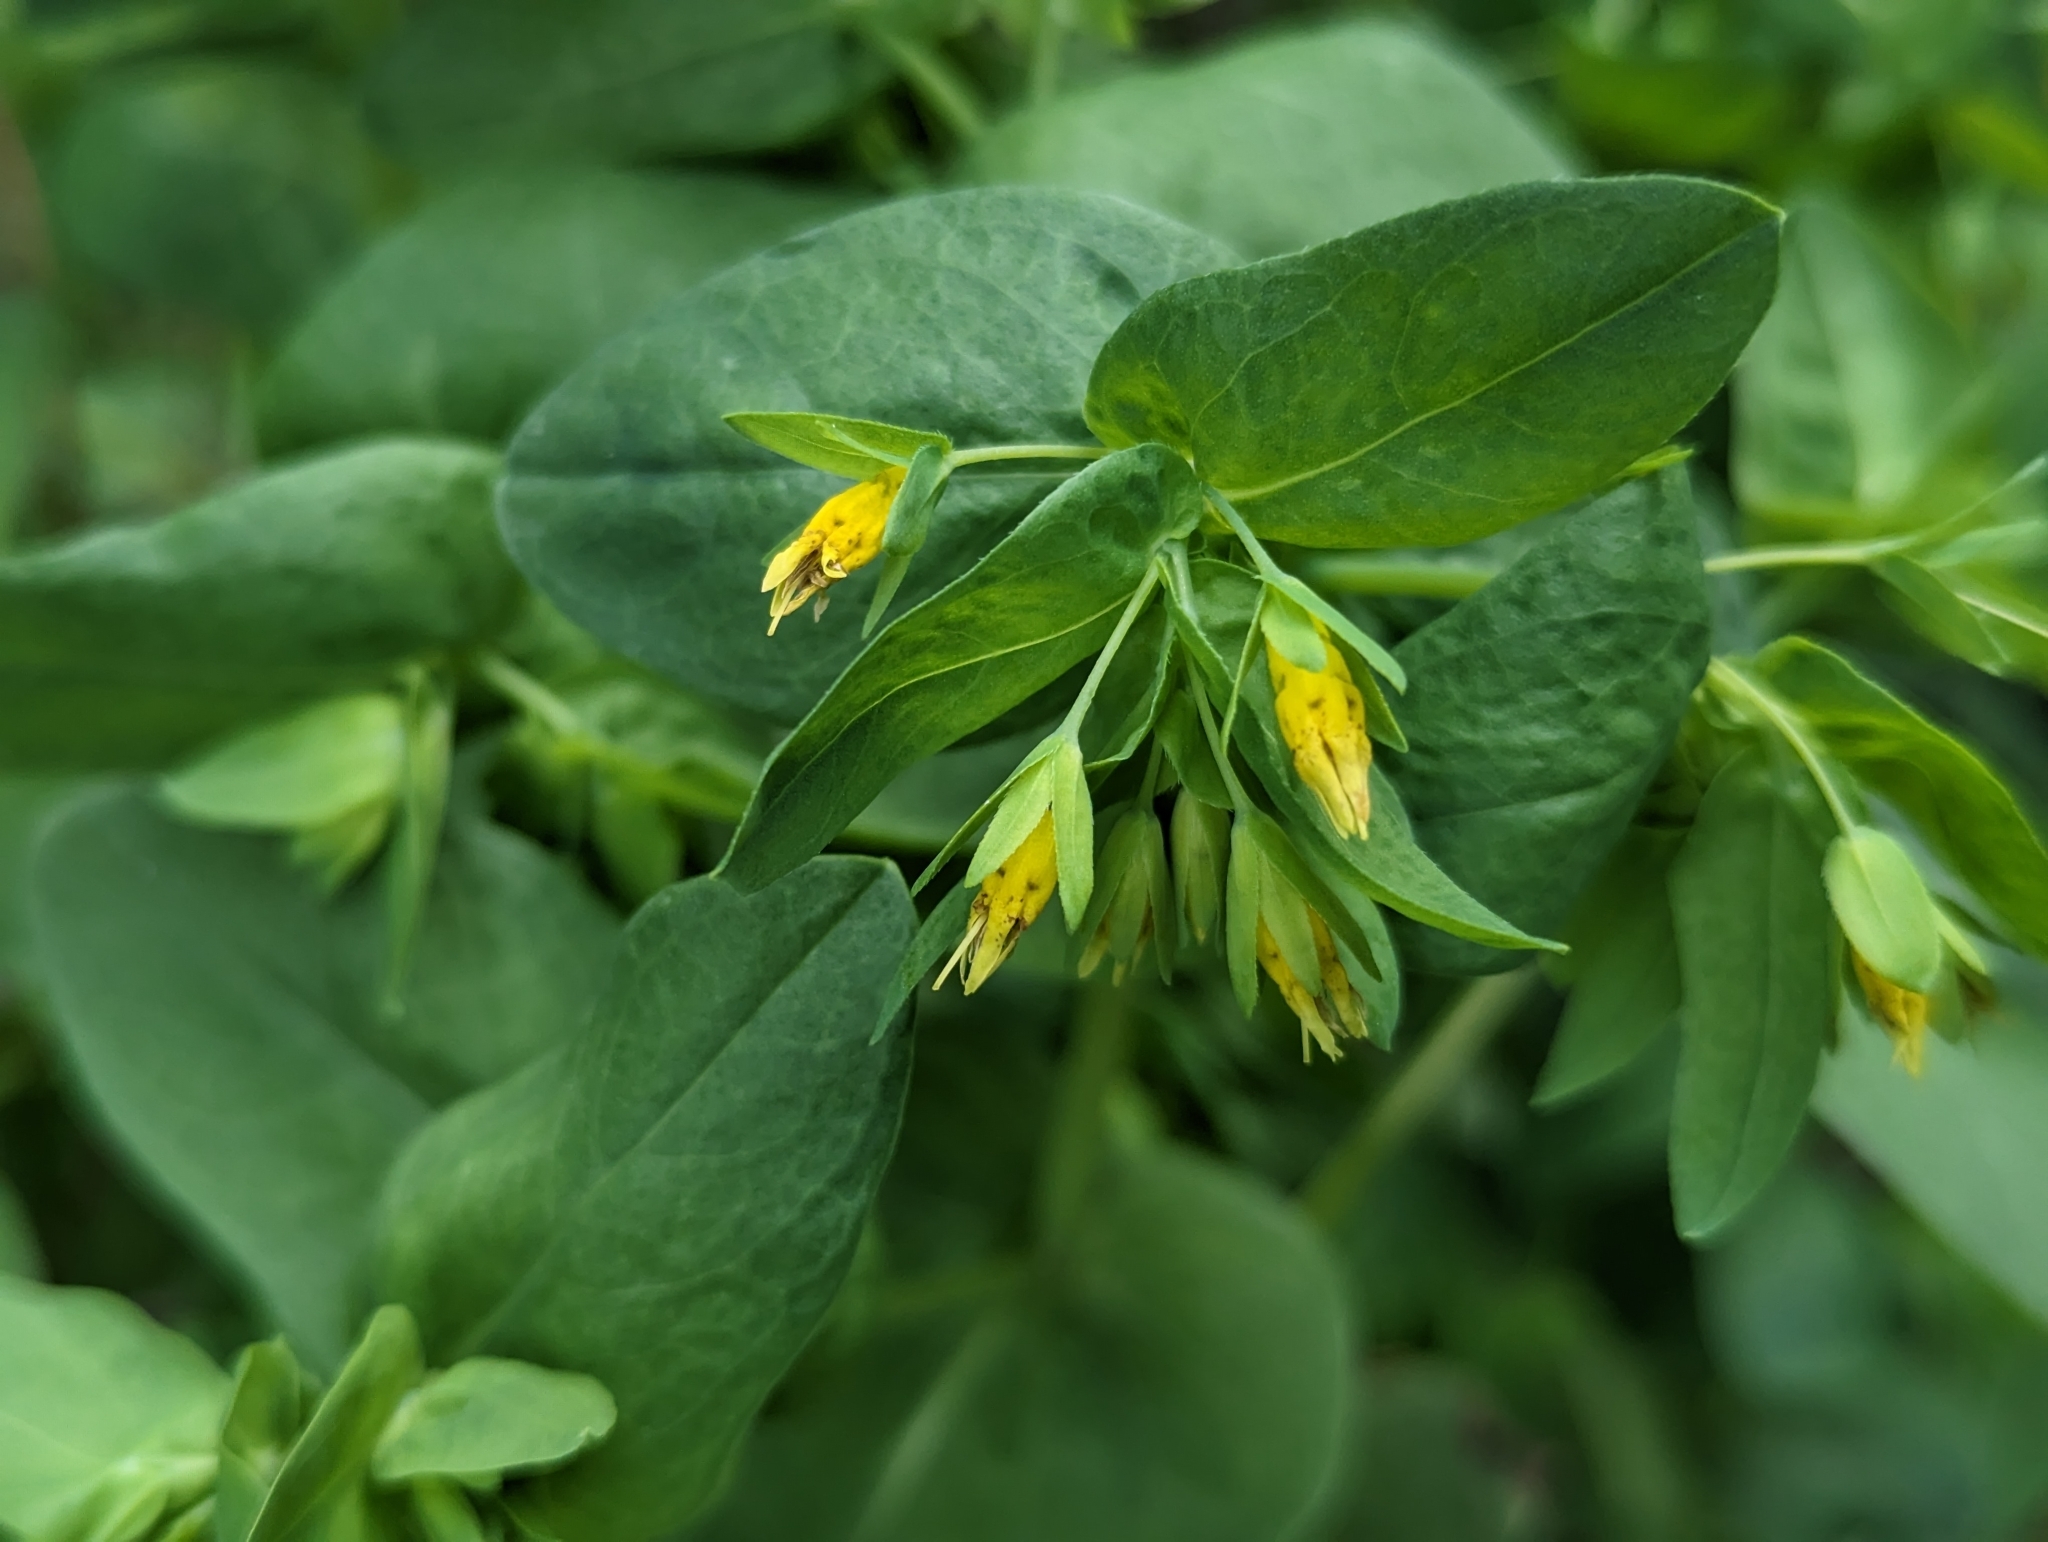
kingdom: Plantae
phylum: Tracheophyta
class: Magnoliopsida
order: Boraginales
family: Boraginaceae
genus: Cerinthe
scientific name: Cerinthe minor
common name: Lesser honeywort
